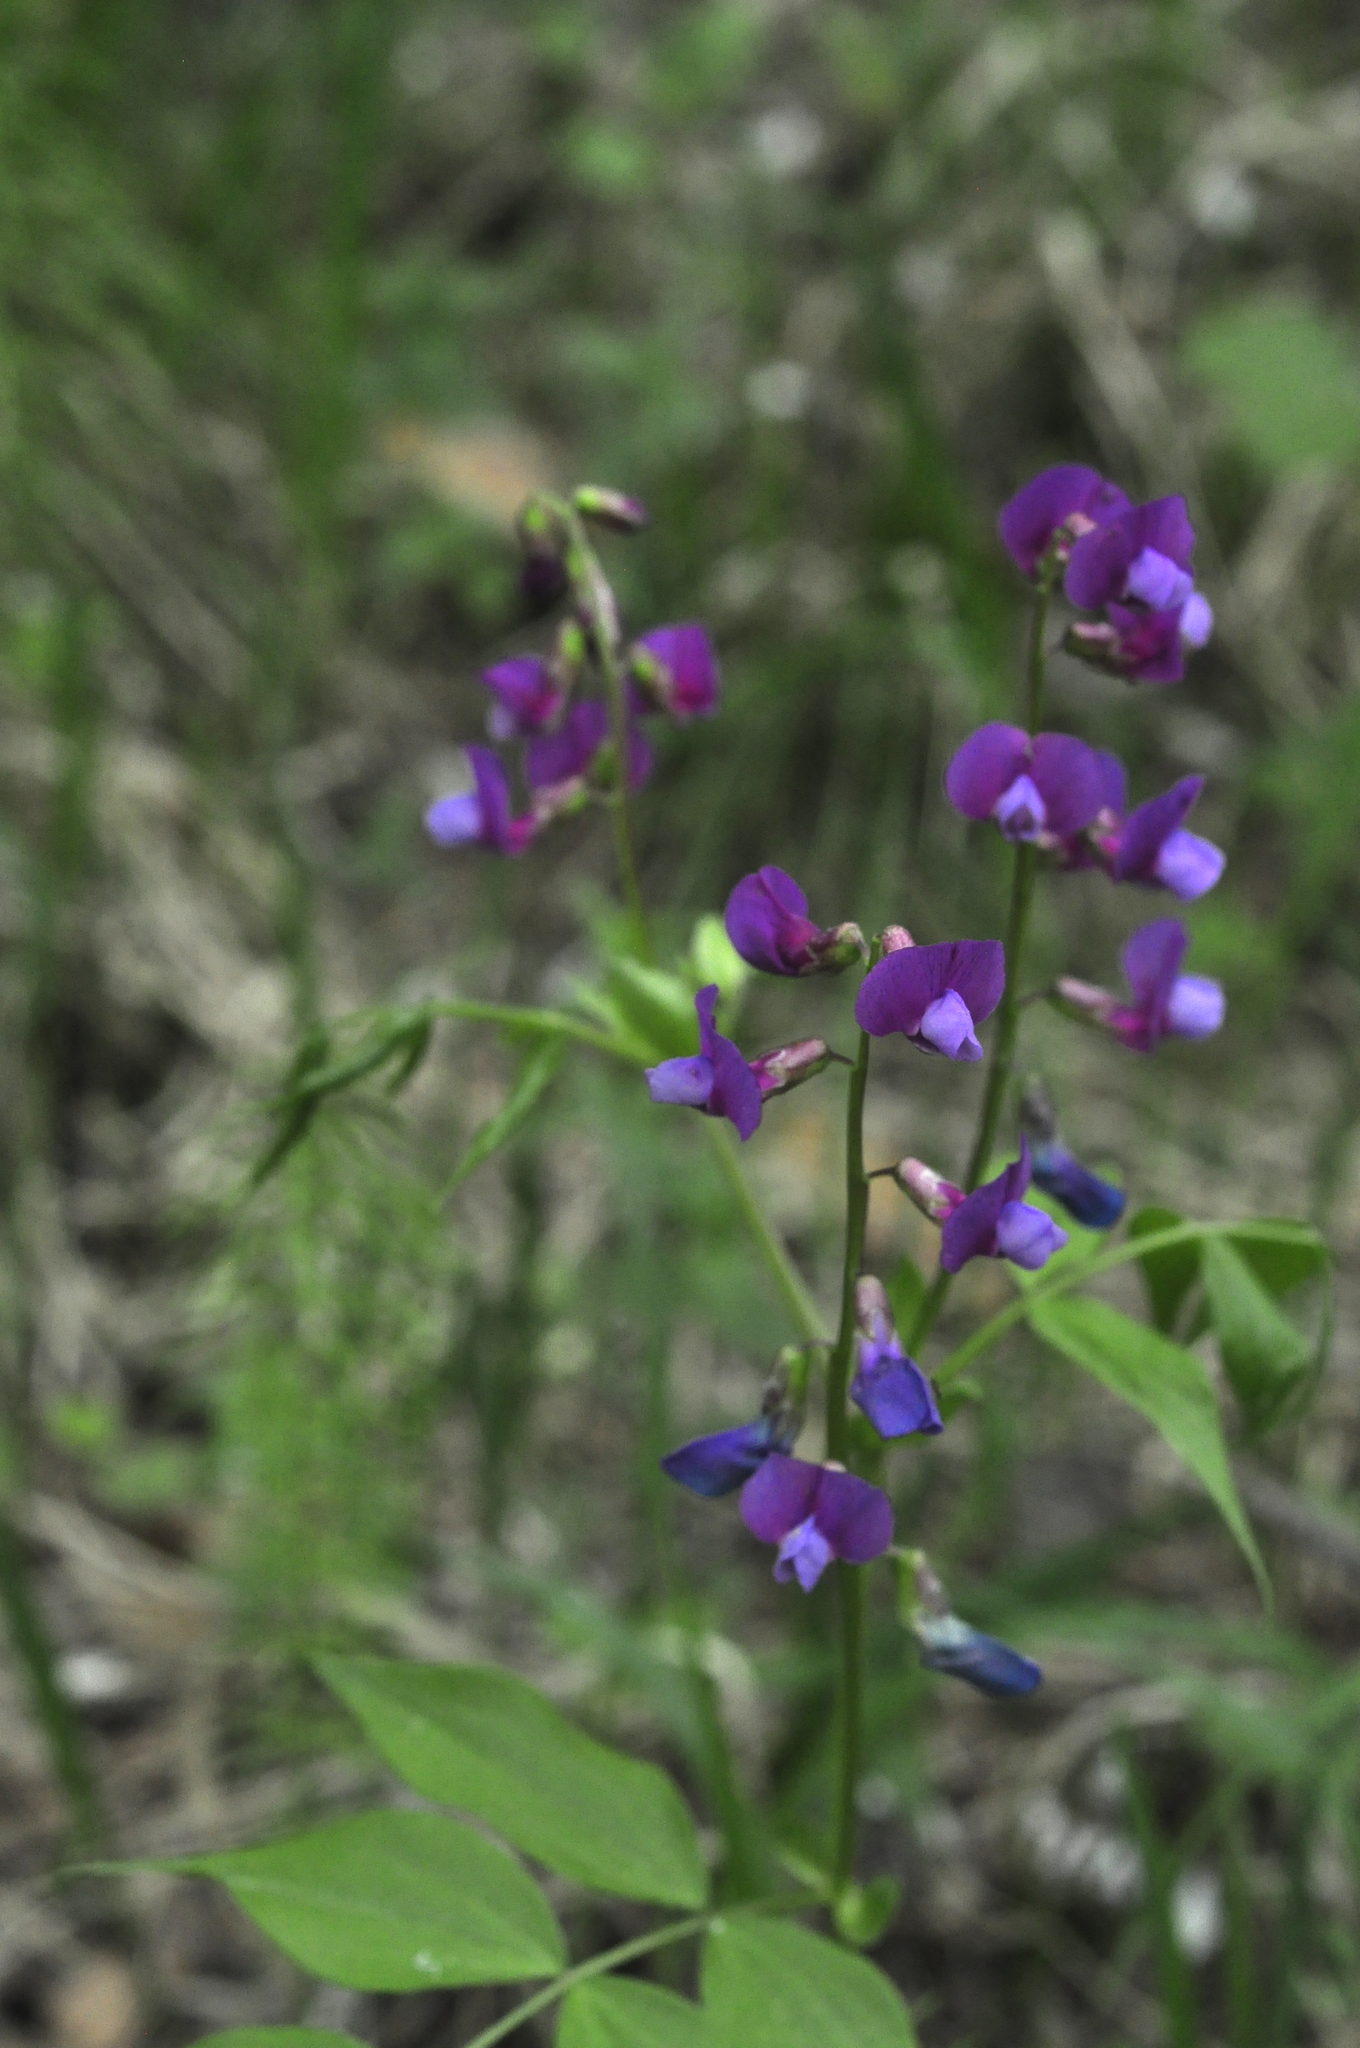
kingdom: Plantae
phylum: Tracheophyta
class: Magnoliopsida
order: Fabales
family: Fabaceae
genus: Lathyrus
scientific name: Lathyrus vernus
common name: Spring pea
